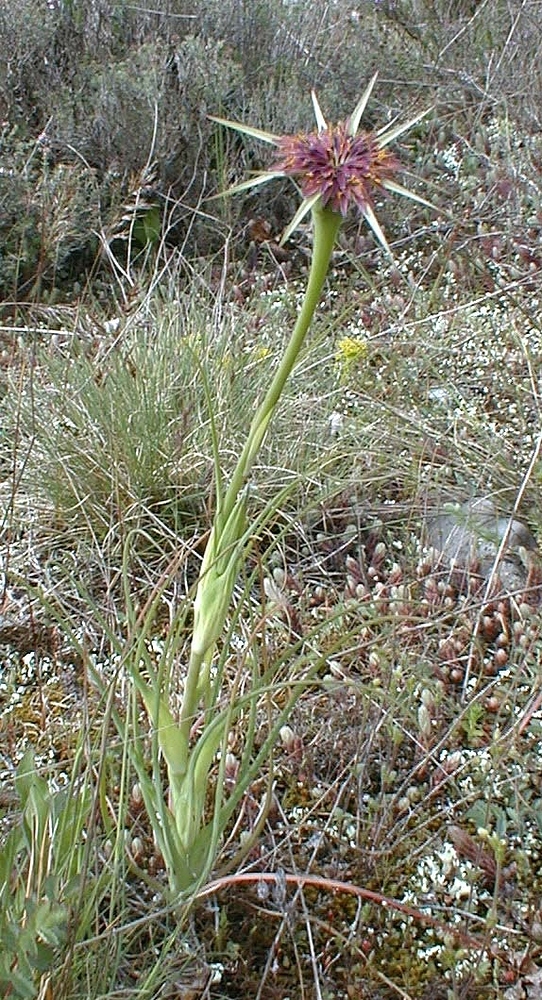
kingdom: Plantae
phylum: Tracheophyta
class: Magnoliopsida
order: Asterales
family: Asteraceae
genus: Tragopogon
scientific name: Tragopogon porrifolius
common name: Salsify
